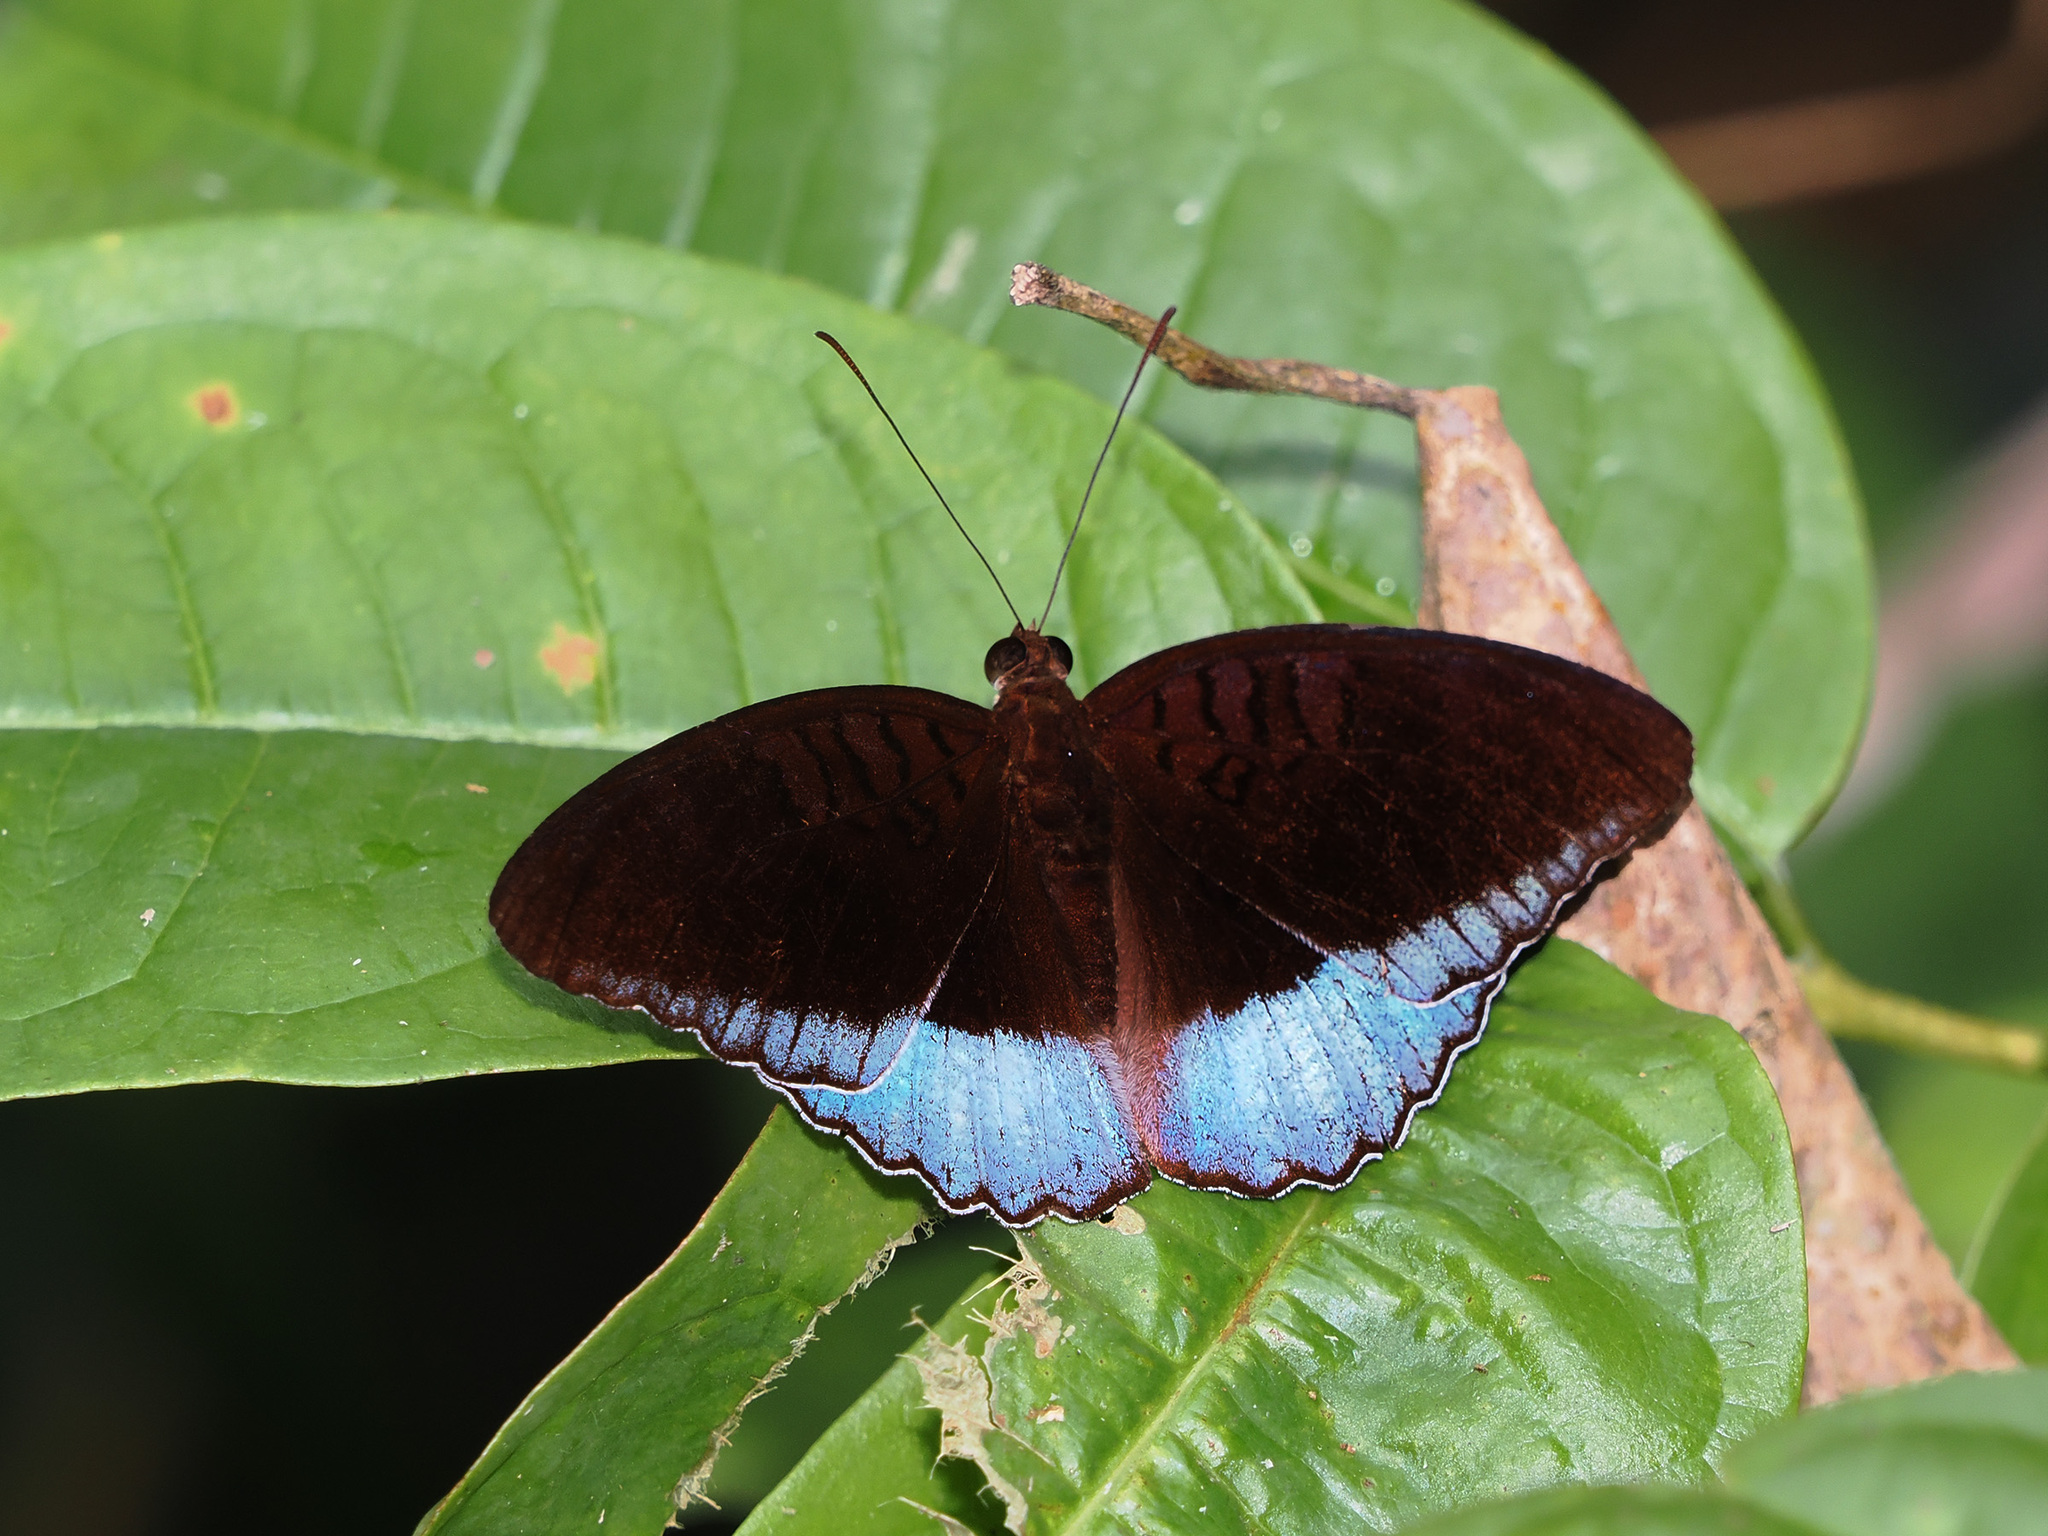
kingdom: Animalia
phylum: Arthropoda
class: Insecta
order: Lepidoptera
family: Nymphalidae
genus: Tanaecia
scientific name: Tanaecia iapis
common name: Horsfield's baron
